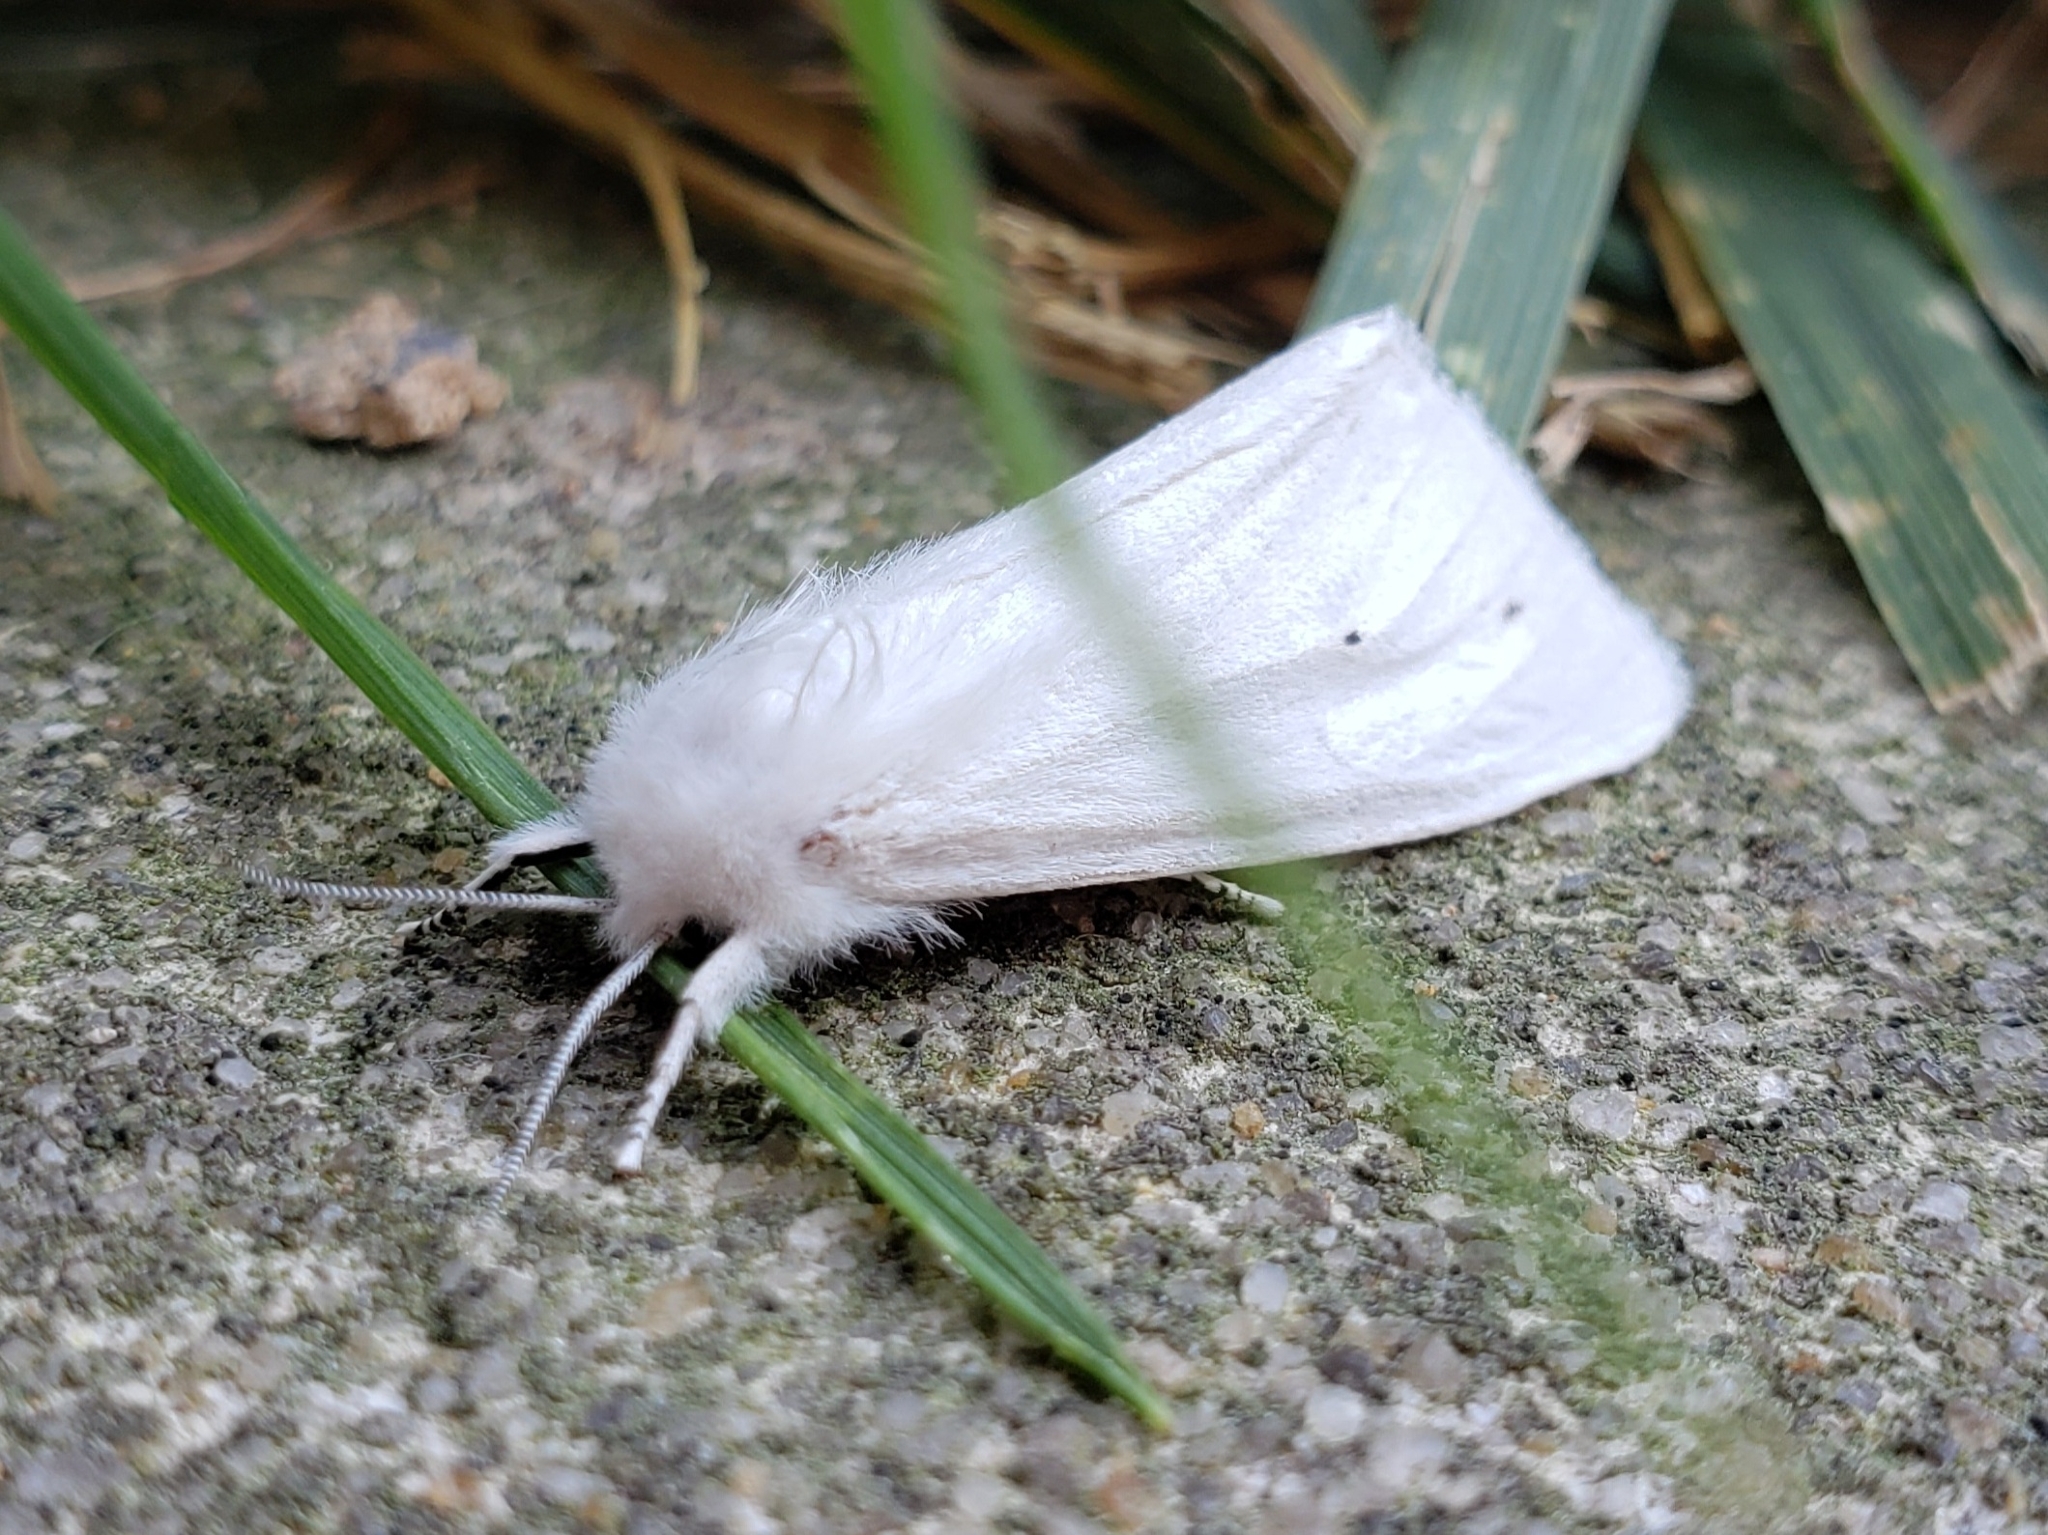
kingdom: Animalia
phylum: Arthropoda
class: Insecta
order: Lepidoptera
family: Erebidae
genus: Spilosoma
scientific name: Spilosoma virginica
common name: Virginia tiger moth
